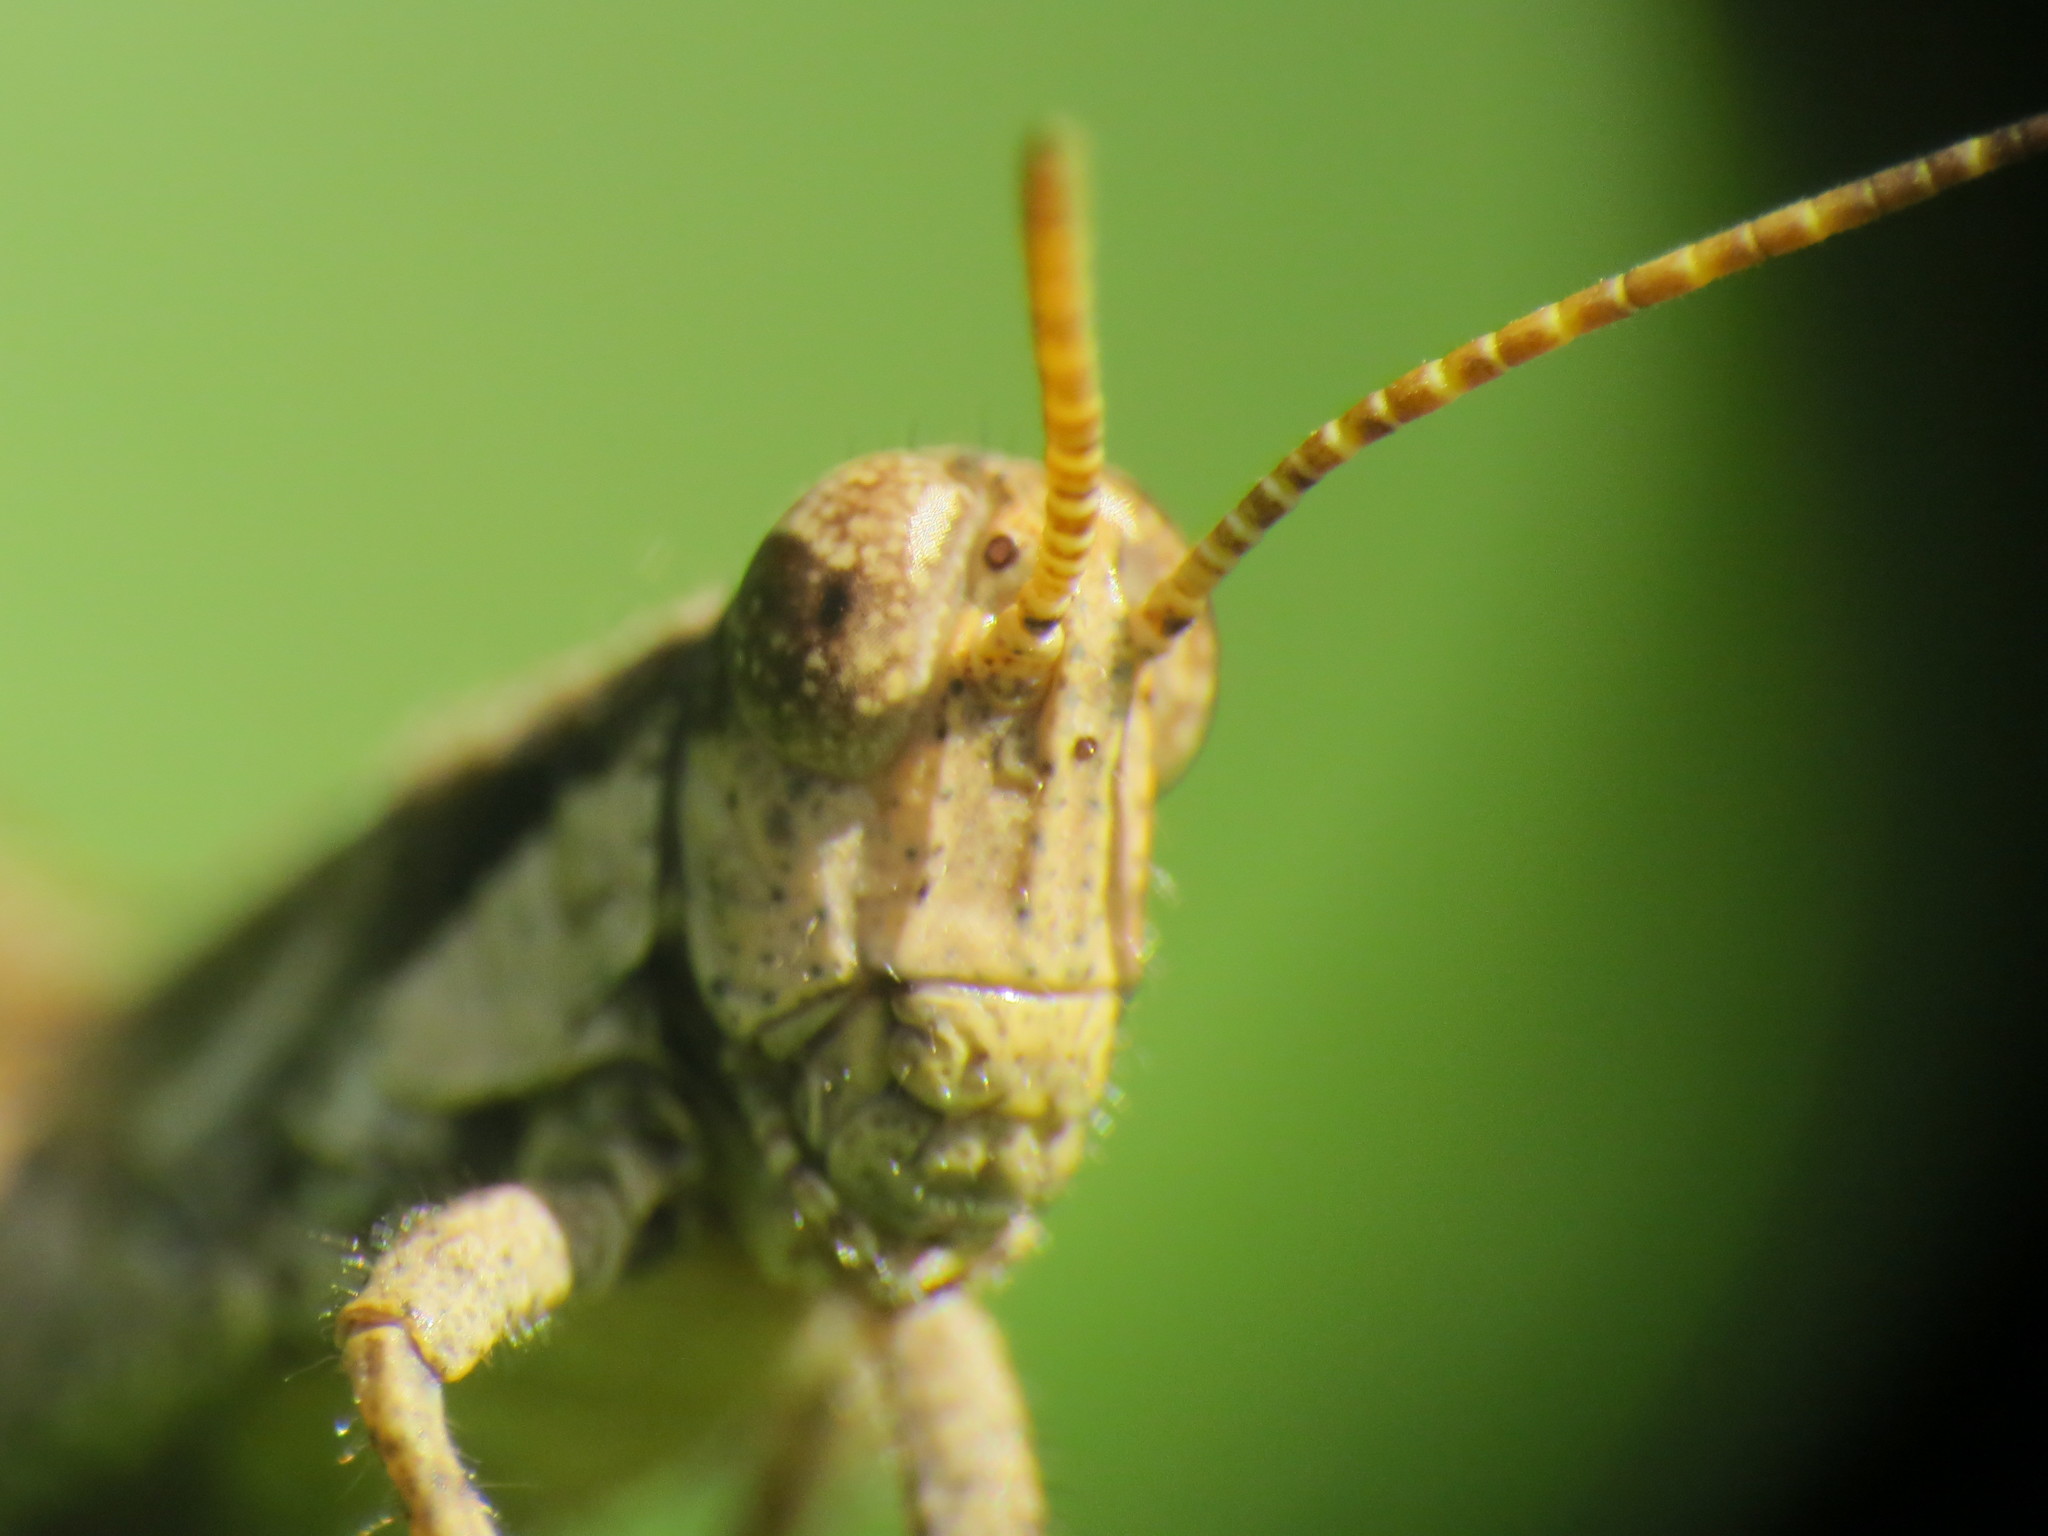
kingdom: Animalia
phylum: Arthropoda
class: Insecta
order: Orthoptera
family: Acrididae
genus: Ronderosia
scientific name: Ronderosia bergii
